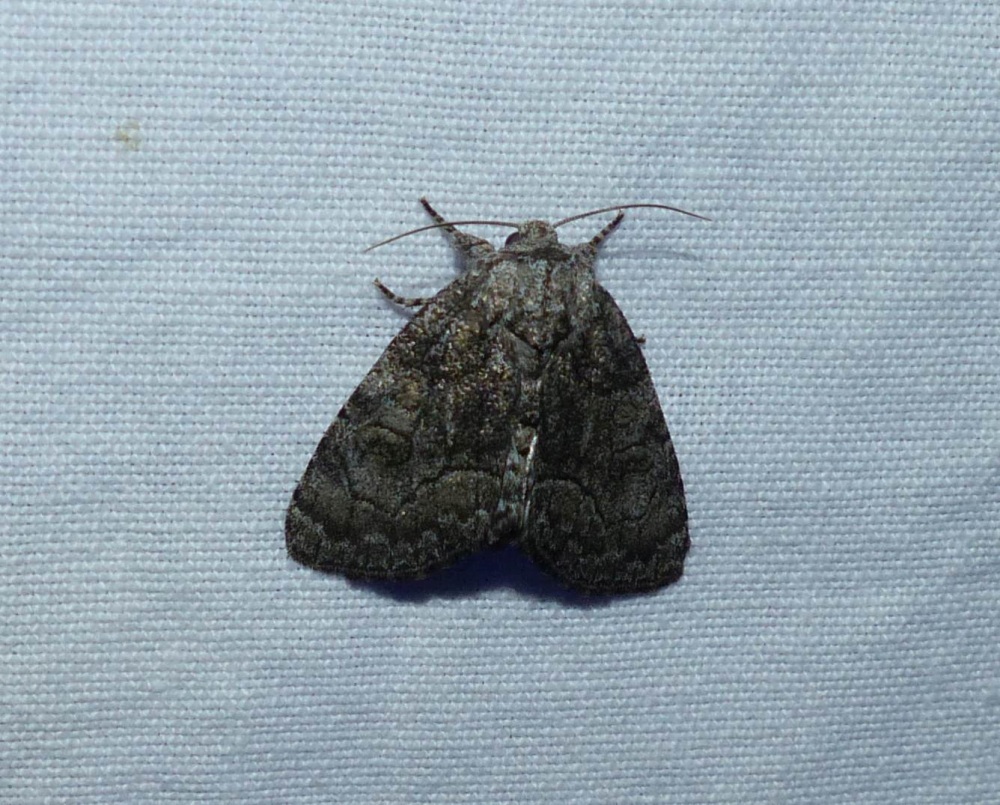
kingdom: Animalia
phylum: Arthropoda
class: Insecta
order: Lepidoptera
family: Noctuidae
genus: Raphia
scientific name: Raphia frater
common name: Brother
